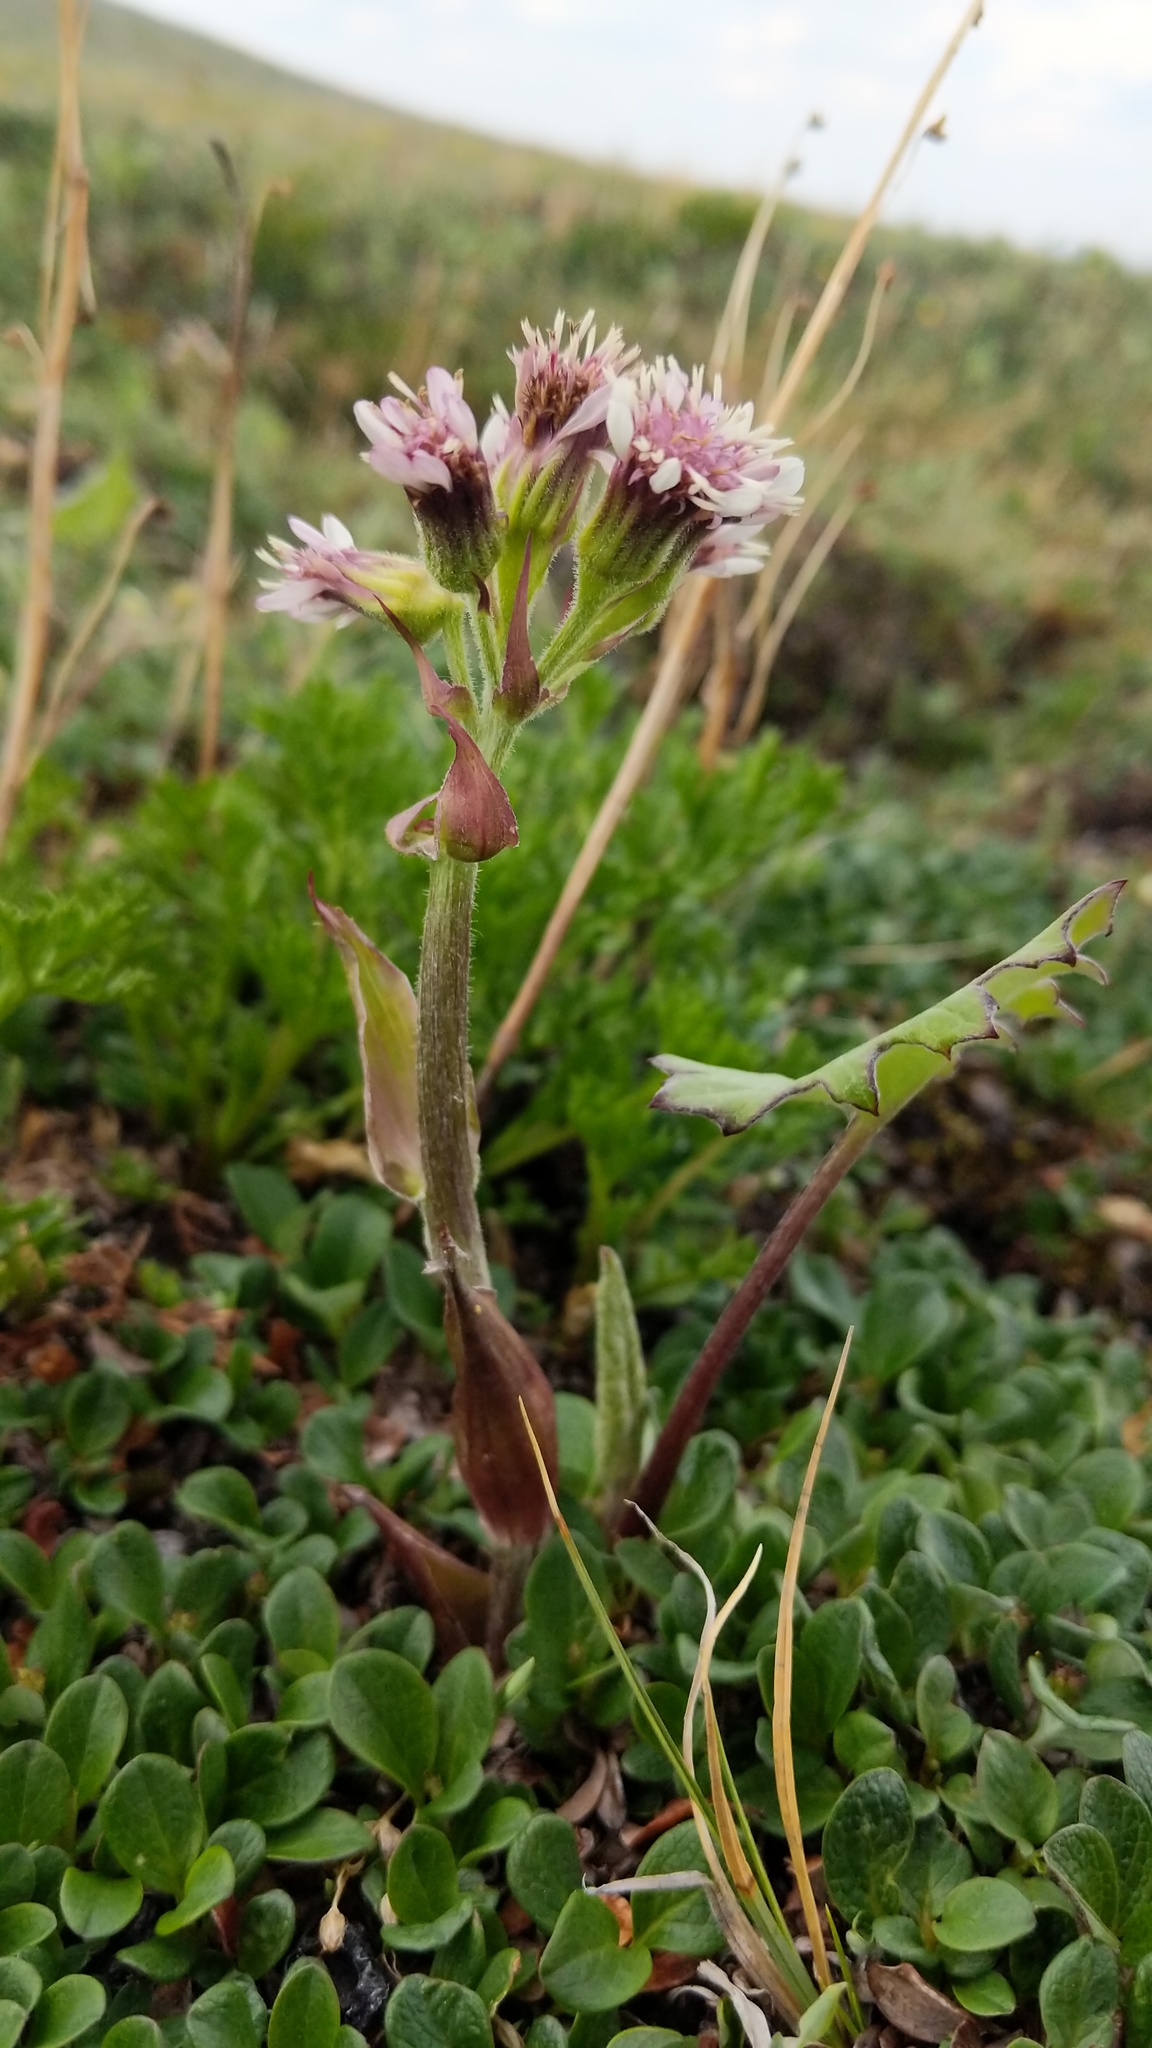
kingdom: Plantae
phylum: Tracheophyta
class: Magnoliopsida
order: Asterales
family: Asteraceae
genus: Petasites
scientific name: Petasites frigidus
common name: Arctic butterbur
